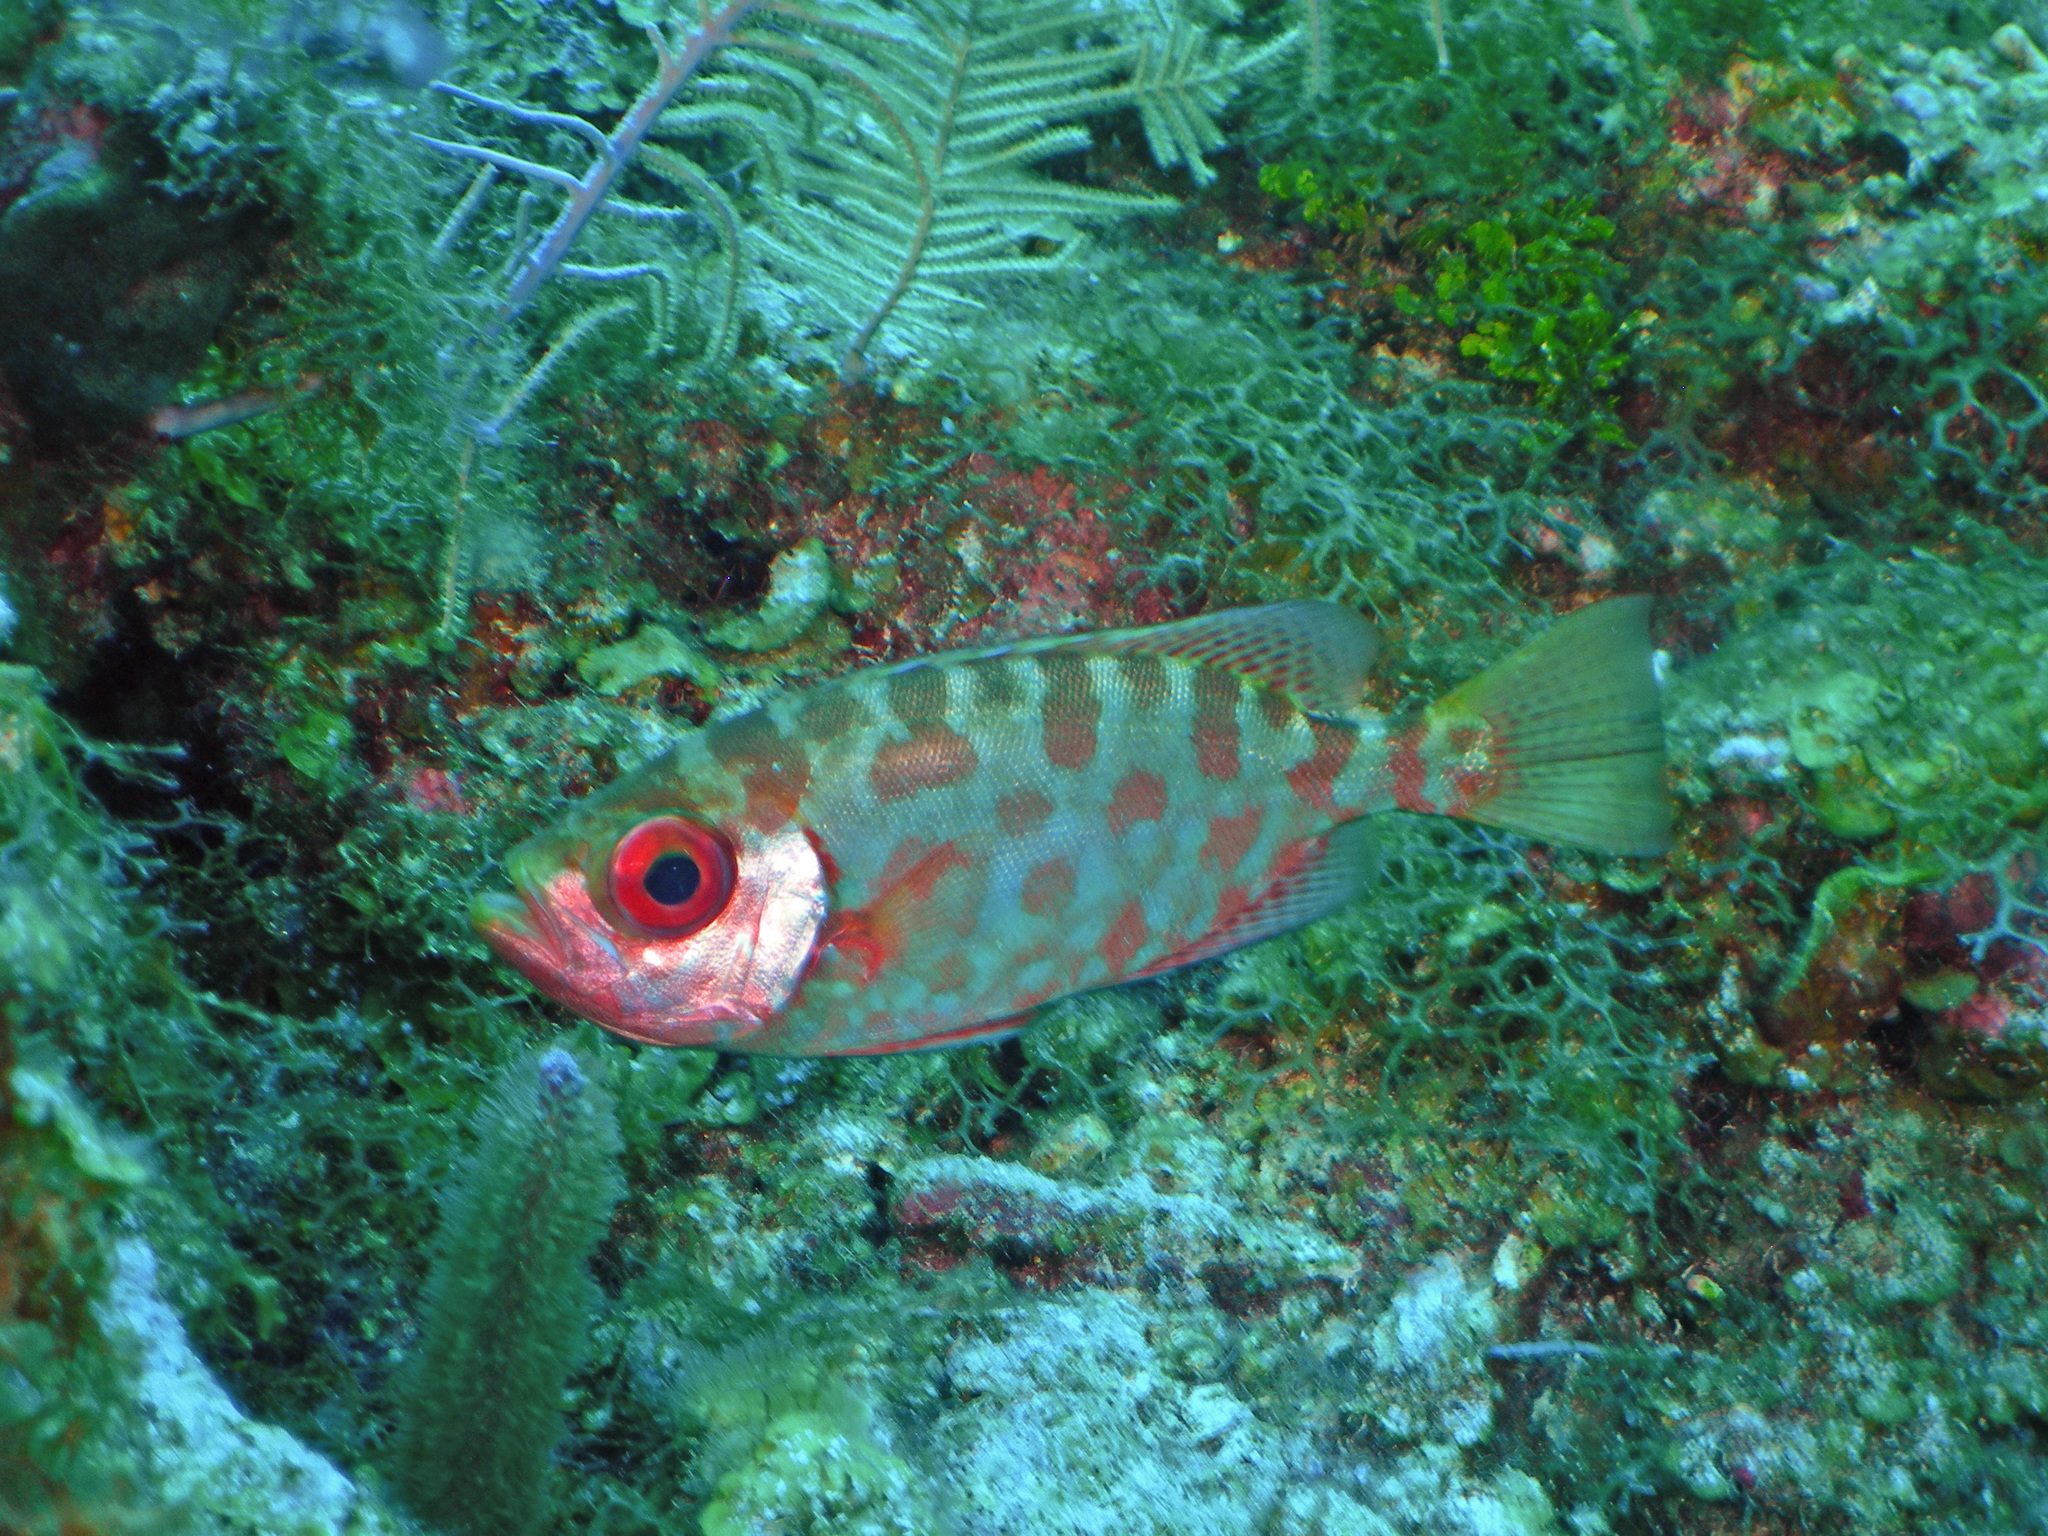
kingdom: Animalia
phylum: Chordata
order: Perciformes
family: Priacanthidae
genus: Heteropriacanthus
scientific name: Heteropriacanthus cruentatus
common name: Glasseye
